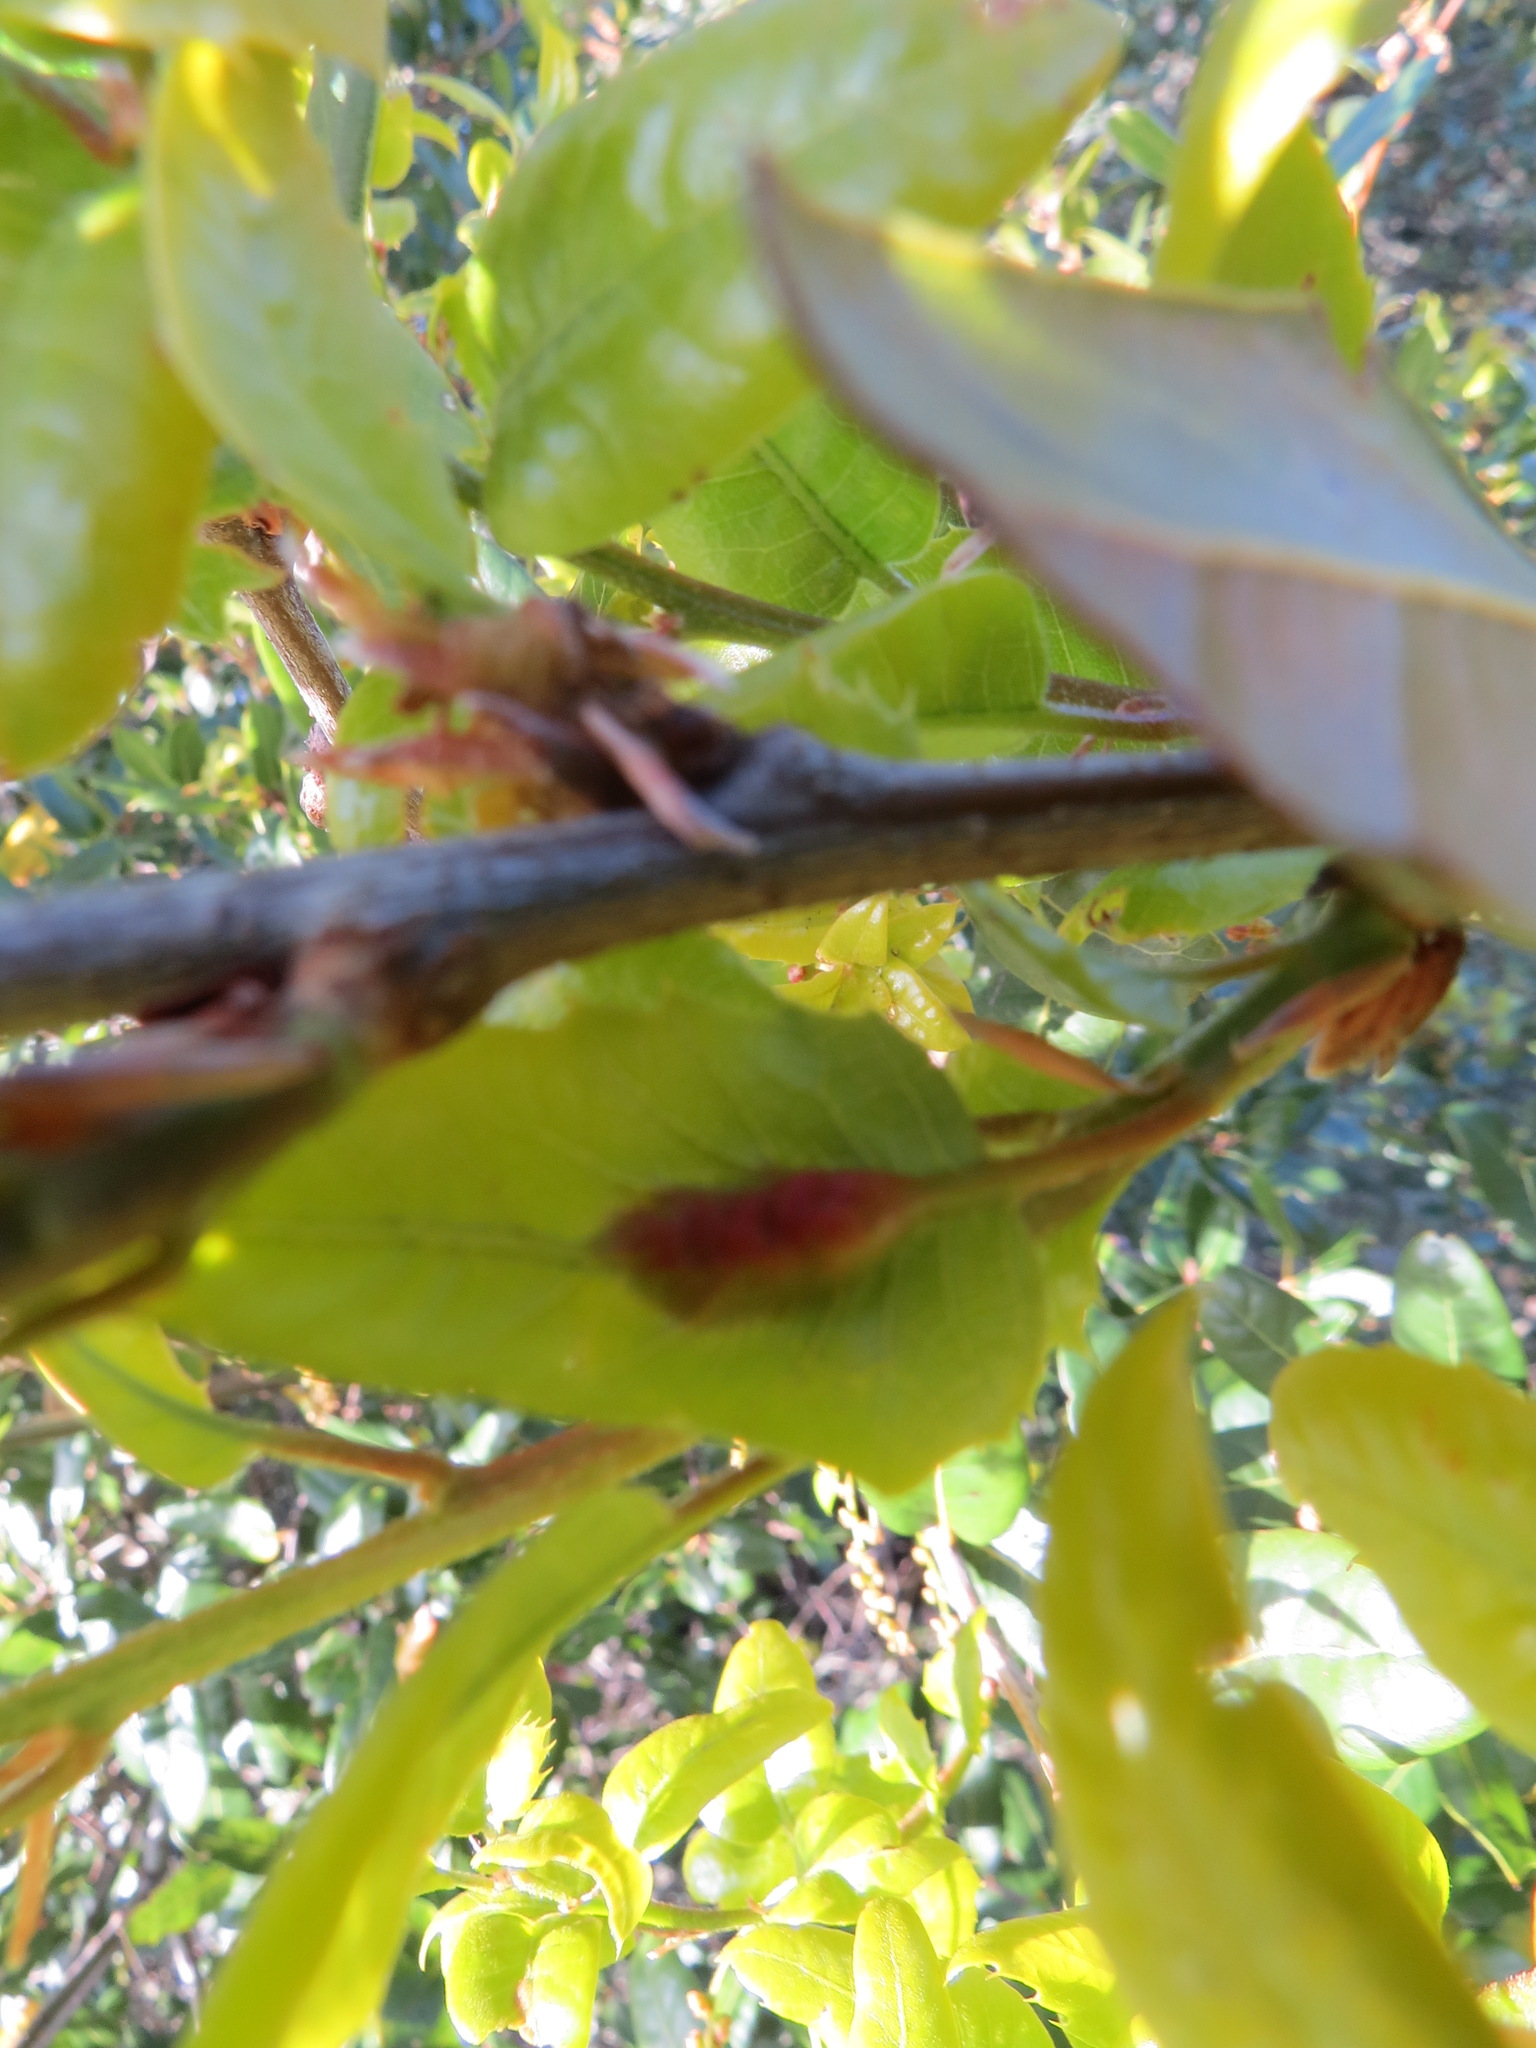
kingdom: Animalia
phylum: Arthropoda
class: Insecta
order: Hymenoptera
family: Cynipidae
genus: Melikaiella
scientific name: Melikaiella
